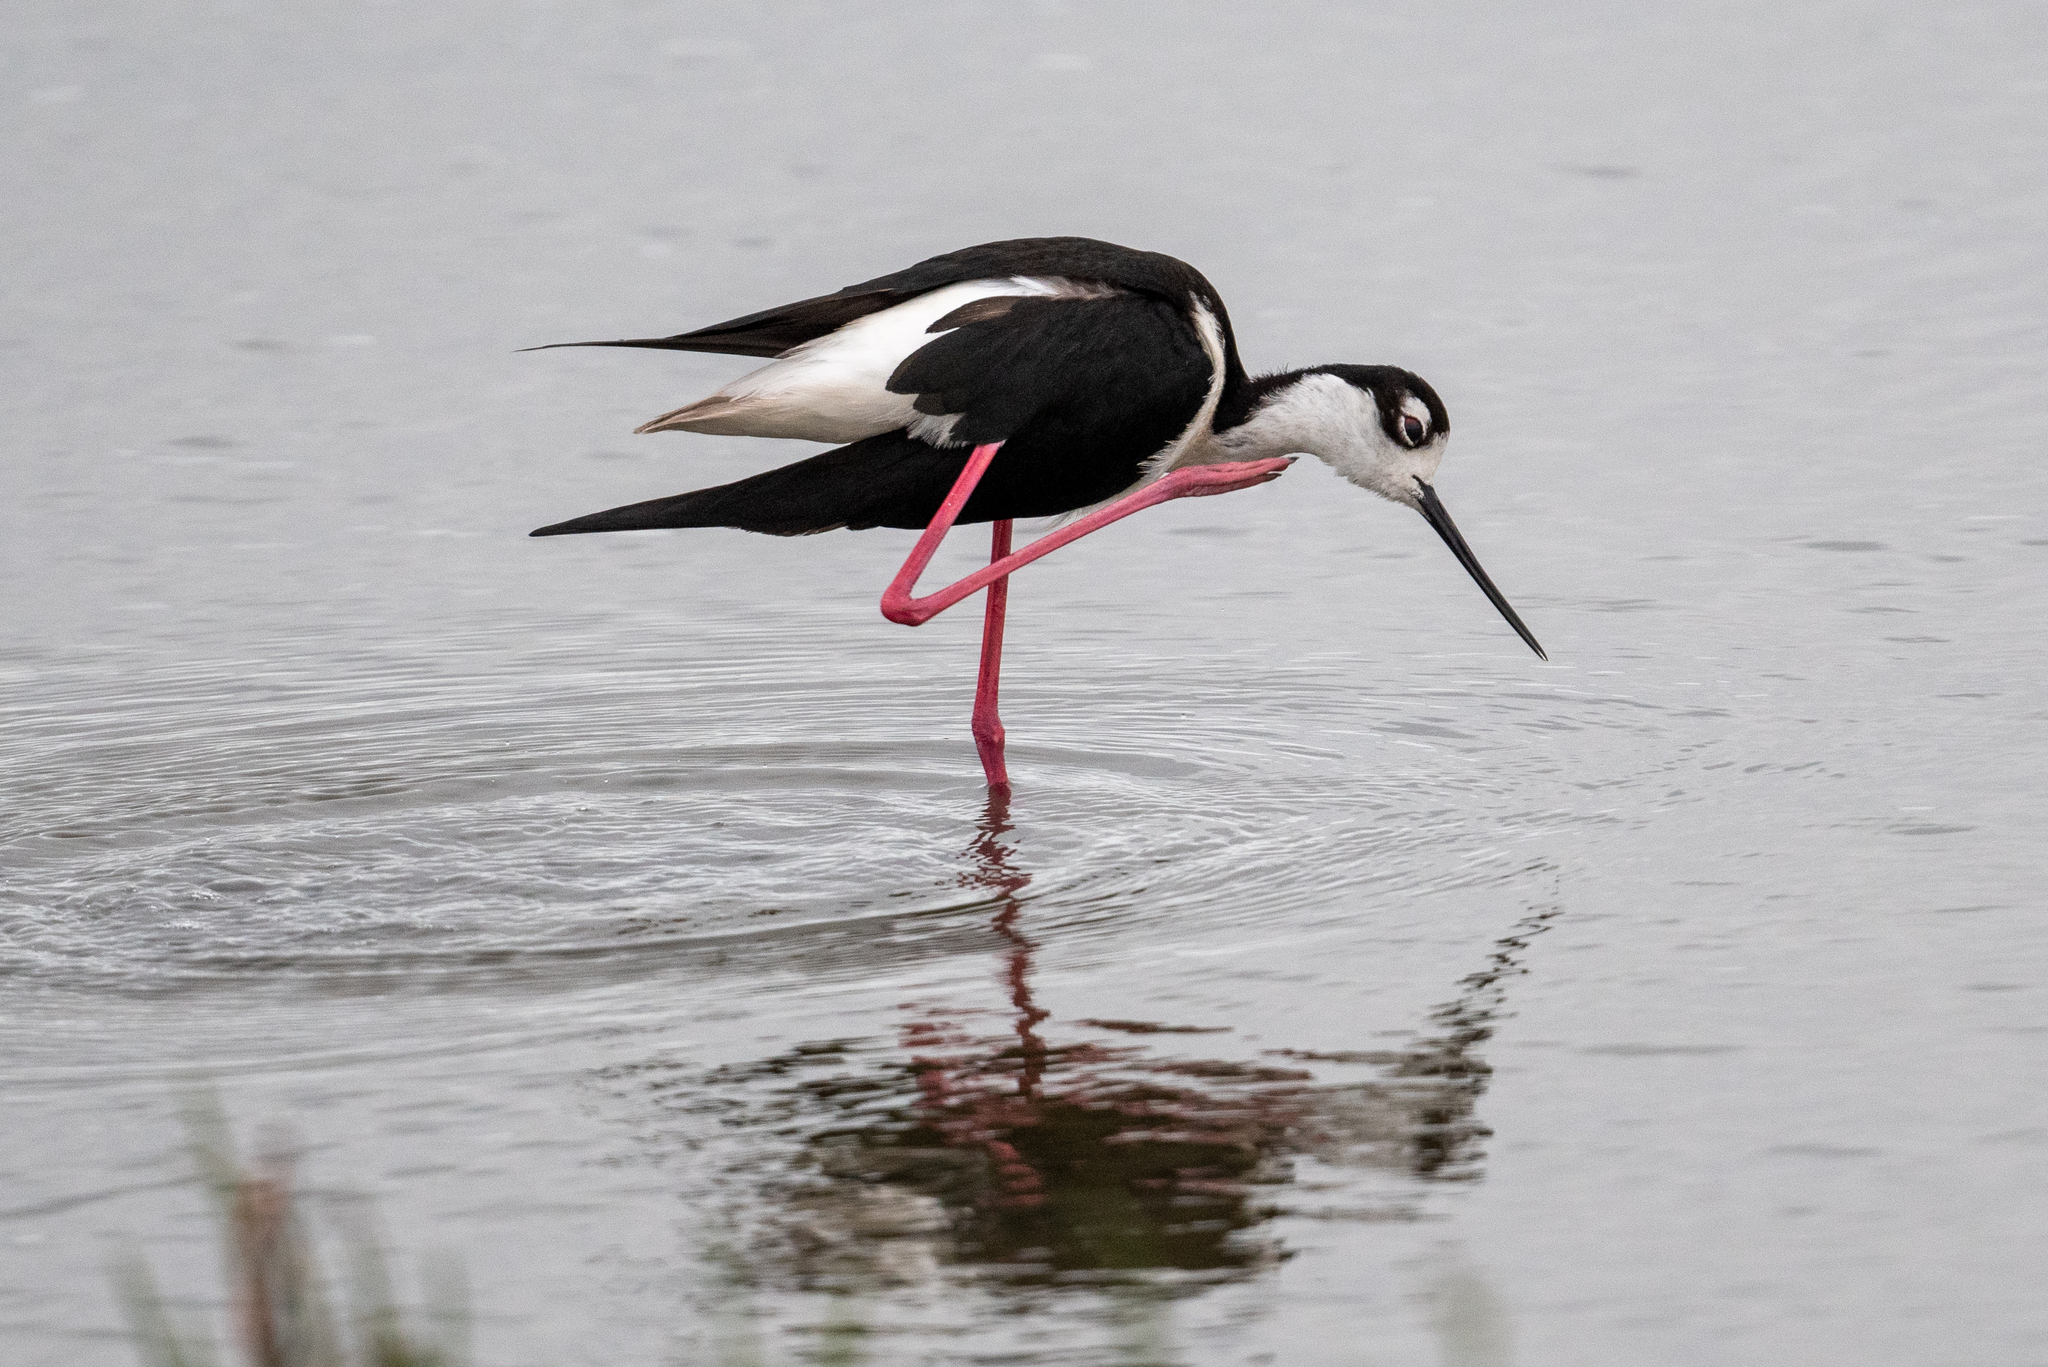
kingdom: Animalia
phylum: Chordata
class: Aves
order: Charadriiformes
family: Recurvirostridae
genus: Himantopus
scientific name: Himantopus mexicanus
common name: Black-necked stilt
